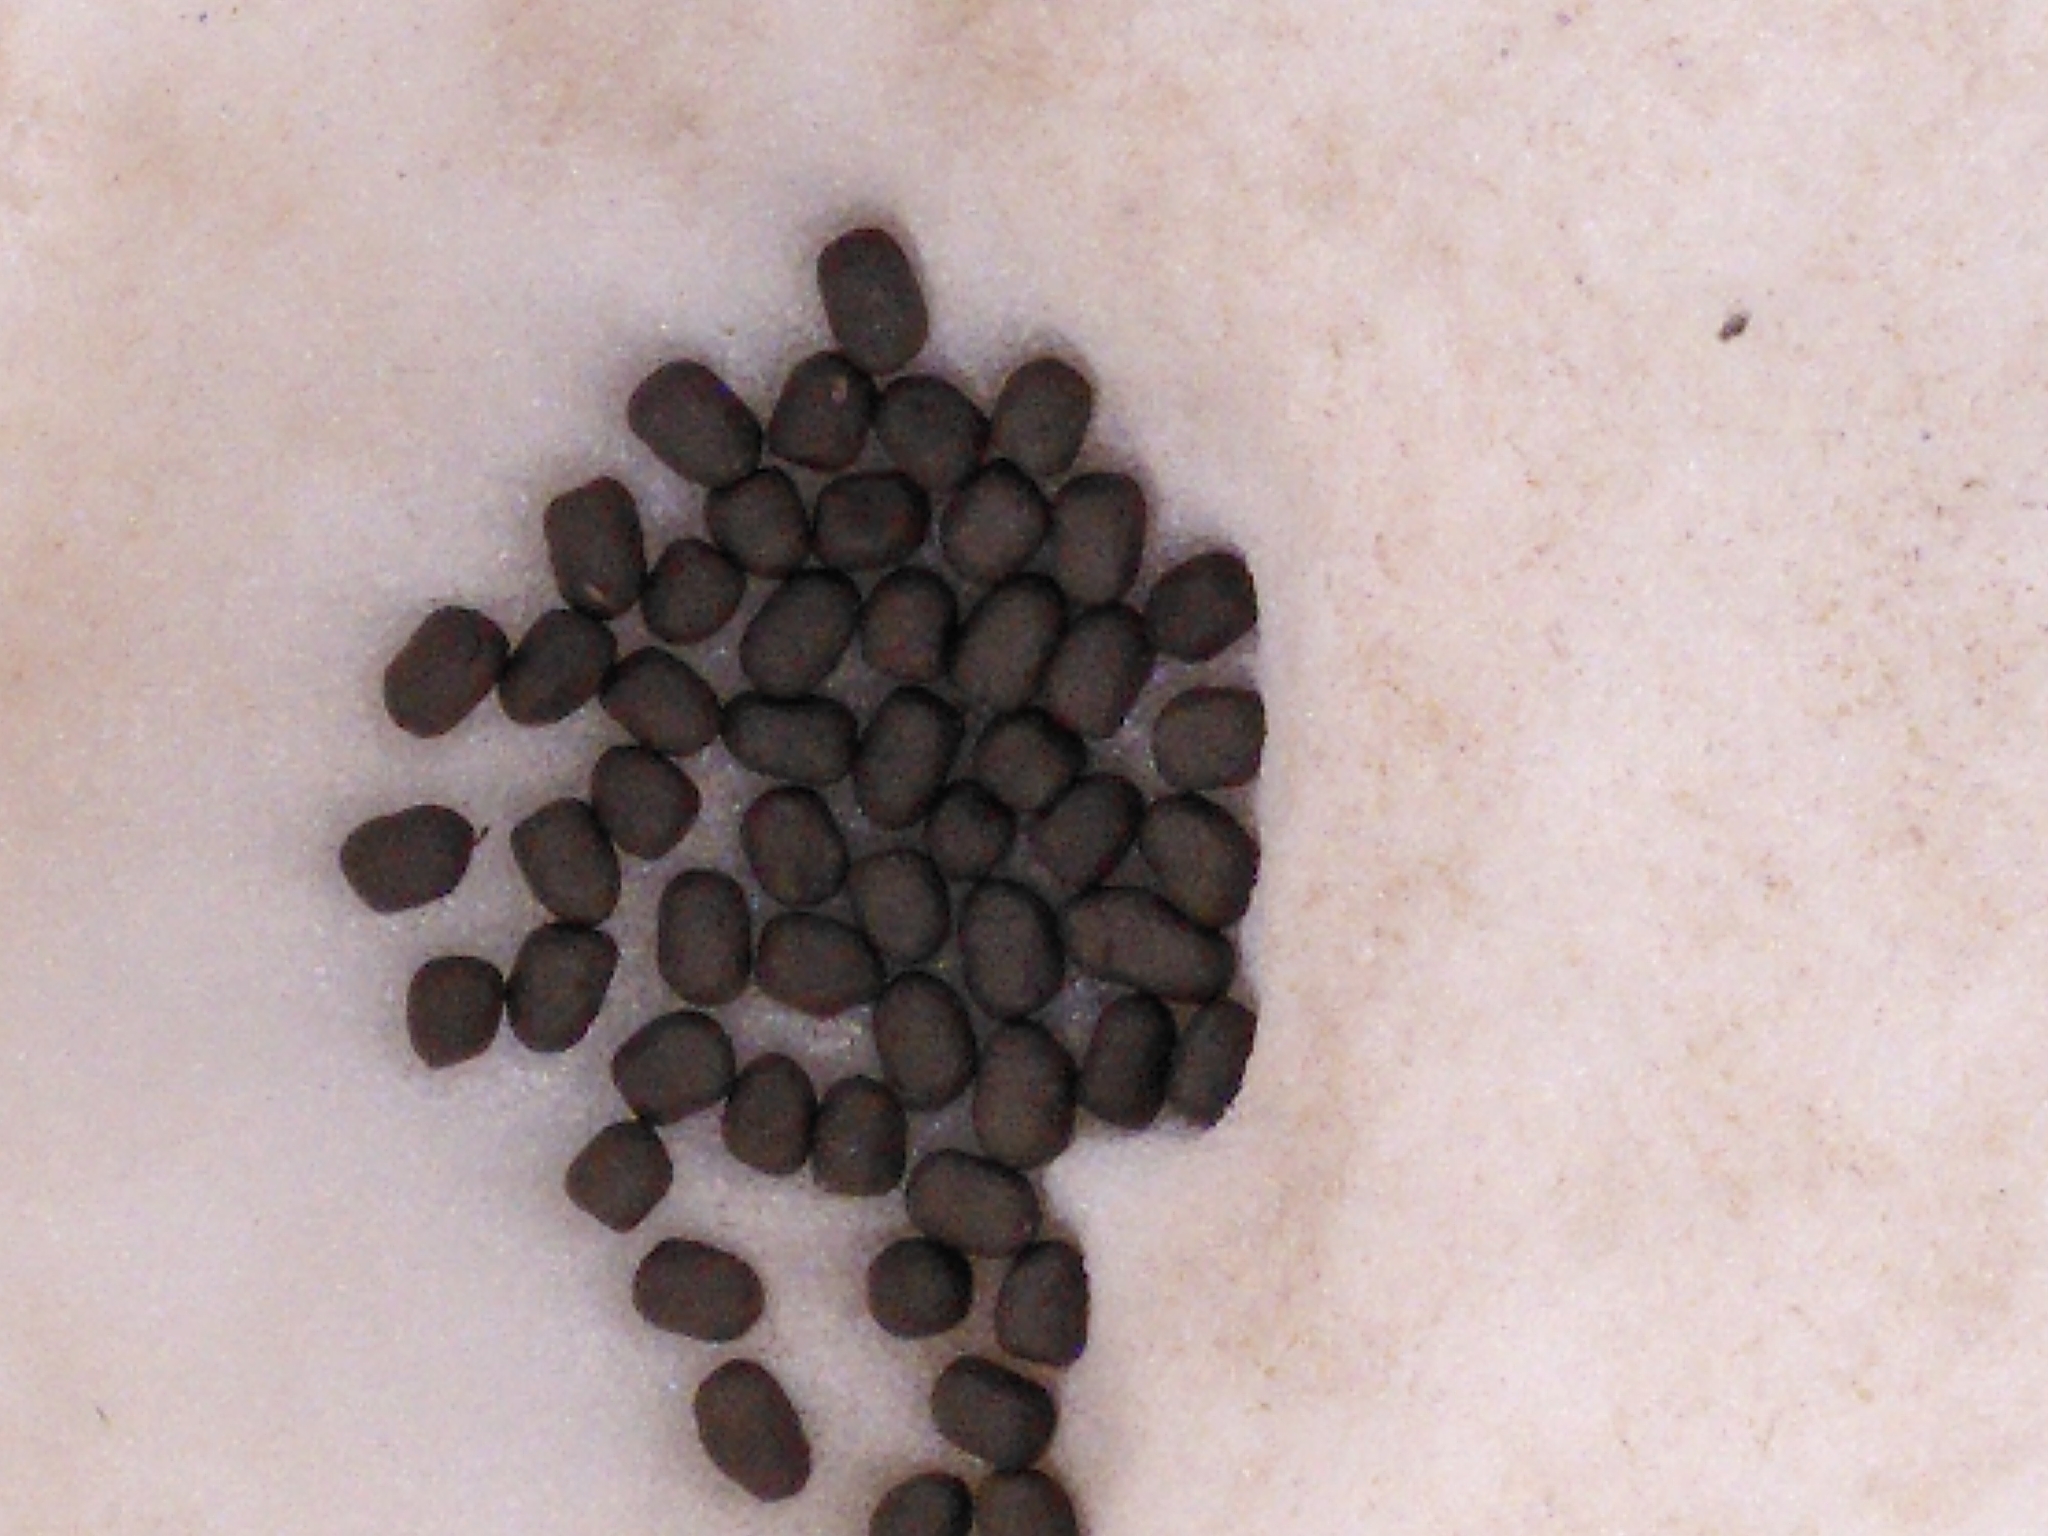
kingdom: Animalia
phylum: Chordata
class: Mammalia
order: Artiodactyla
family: Bovidae
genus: Rupicapra
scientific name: Rupicapra rupicapra
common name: Chamois
